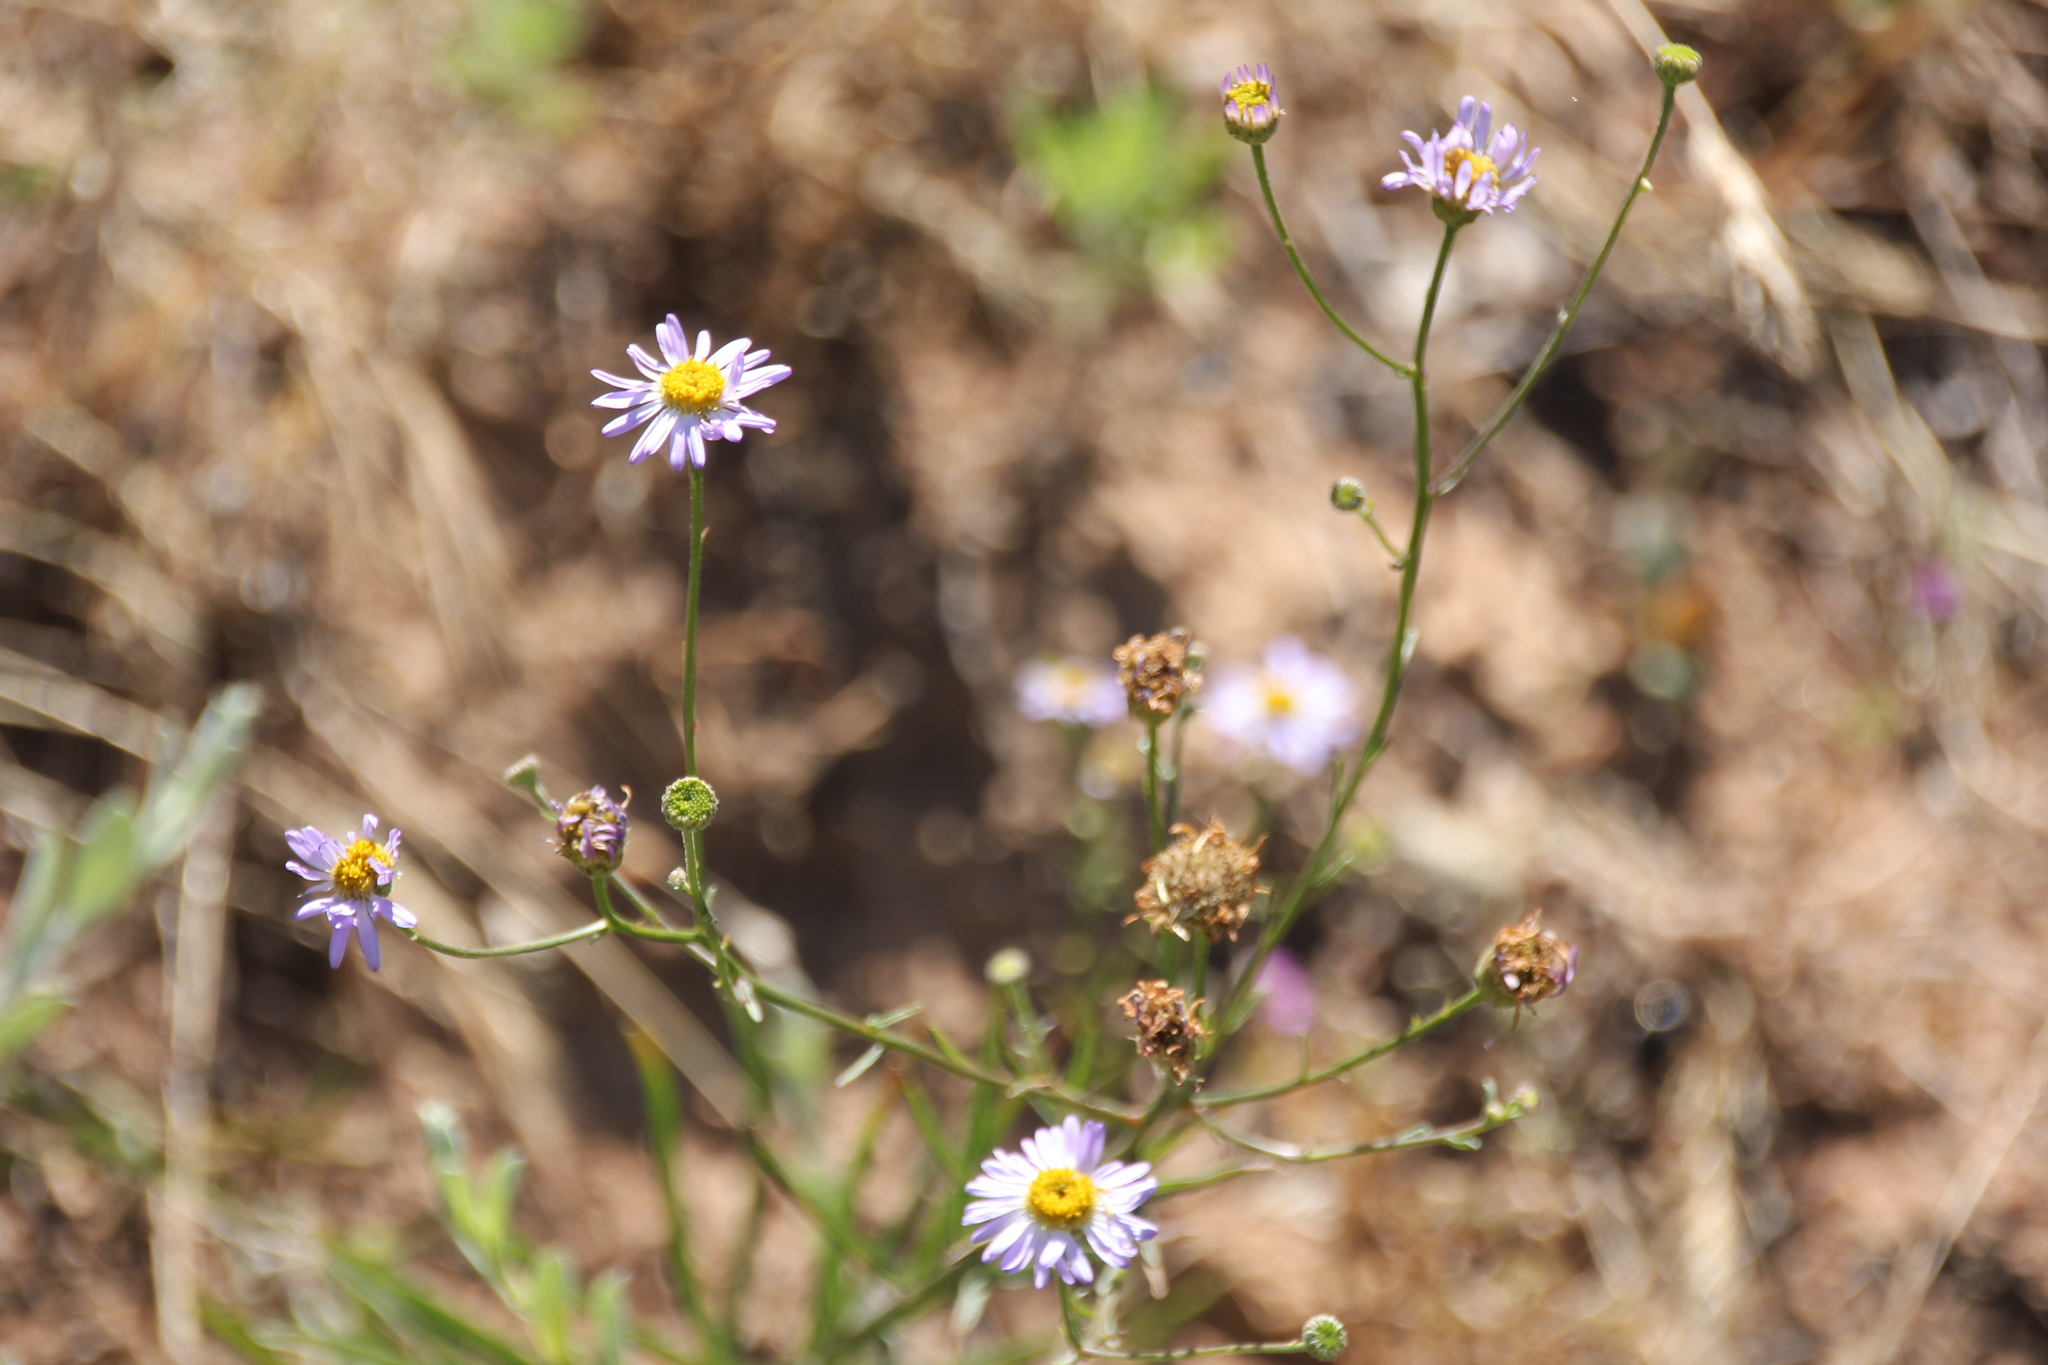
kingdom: Plantae
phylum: Tracheophyta
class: Magnoliopsida
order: Asterales
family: Asteraceae
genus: Erigeron
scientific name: Erigeron foliosus
